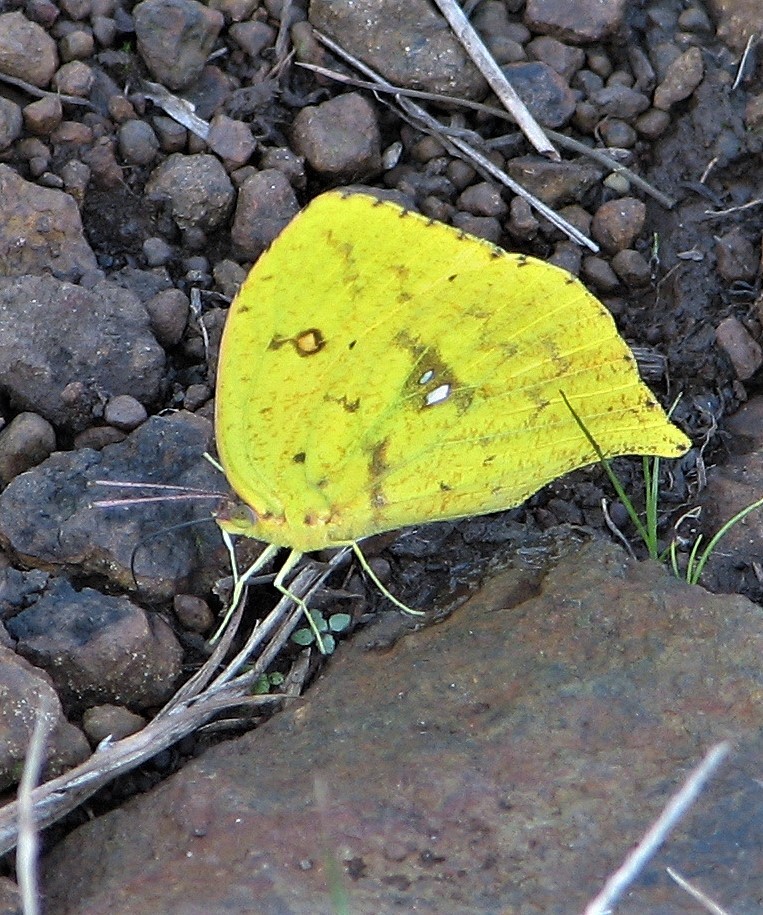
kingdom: Animalia
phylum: Arthropoda
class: Insecta
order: Lepidoptera
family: Pieridae
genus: Phoebis
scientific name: Phoebis neocypris
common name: Tailed sulphur
